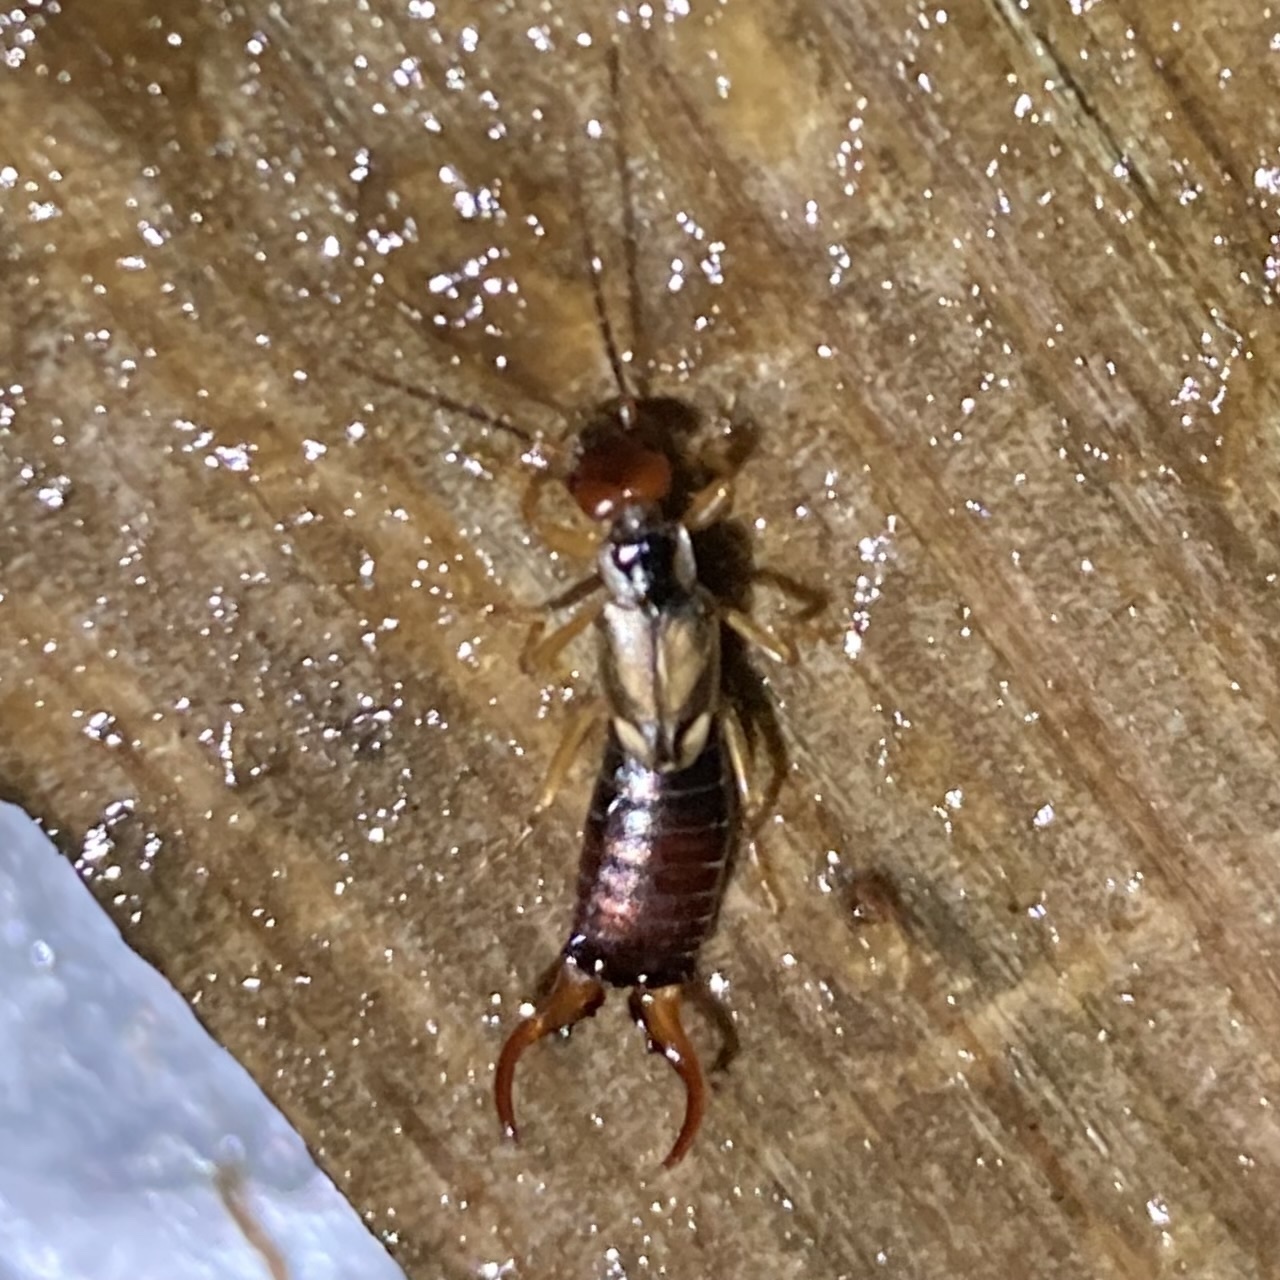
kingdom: Animalia
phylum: Arthropoda
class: Insecta
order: Dermaptera
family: Forficulidae
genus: Forficula
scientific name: Forficula
